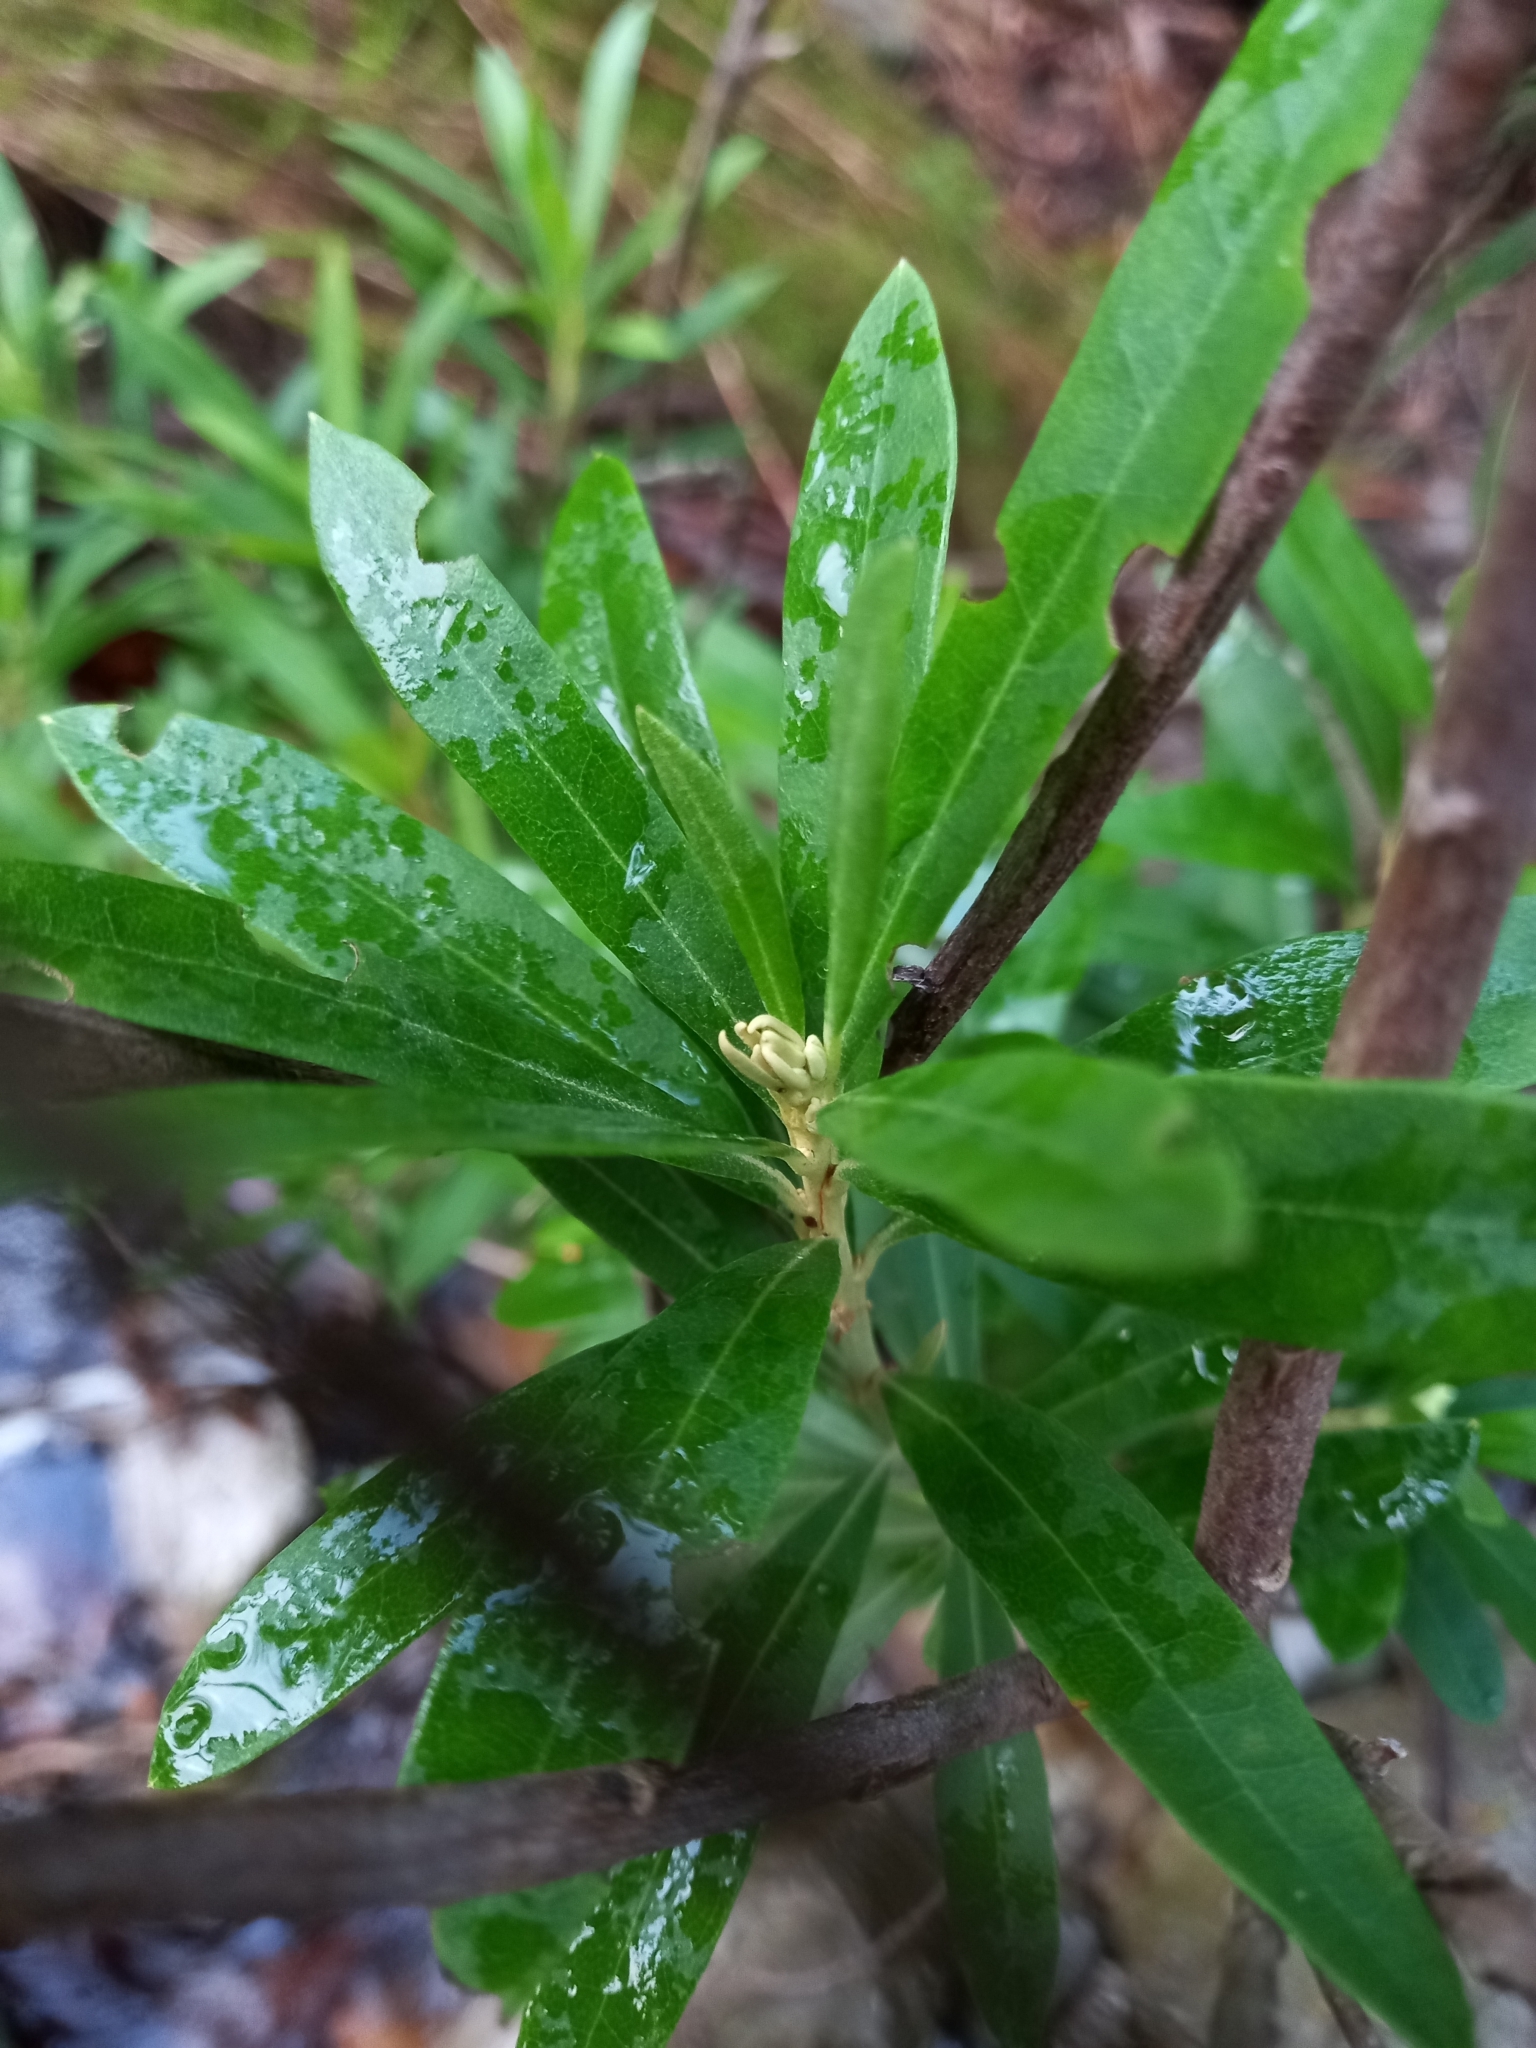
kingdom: Plantae
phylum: Tracheophyta
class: Magnoliopsida
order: Asterales
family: Asteraceae
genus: Brachylaena
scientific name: Brachylaena neriifolia
